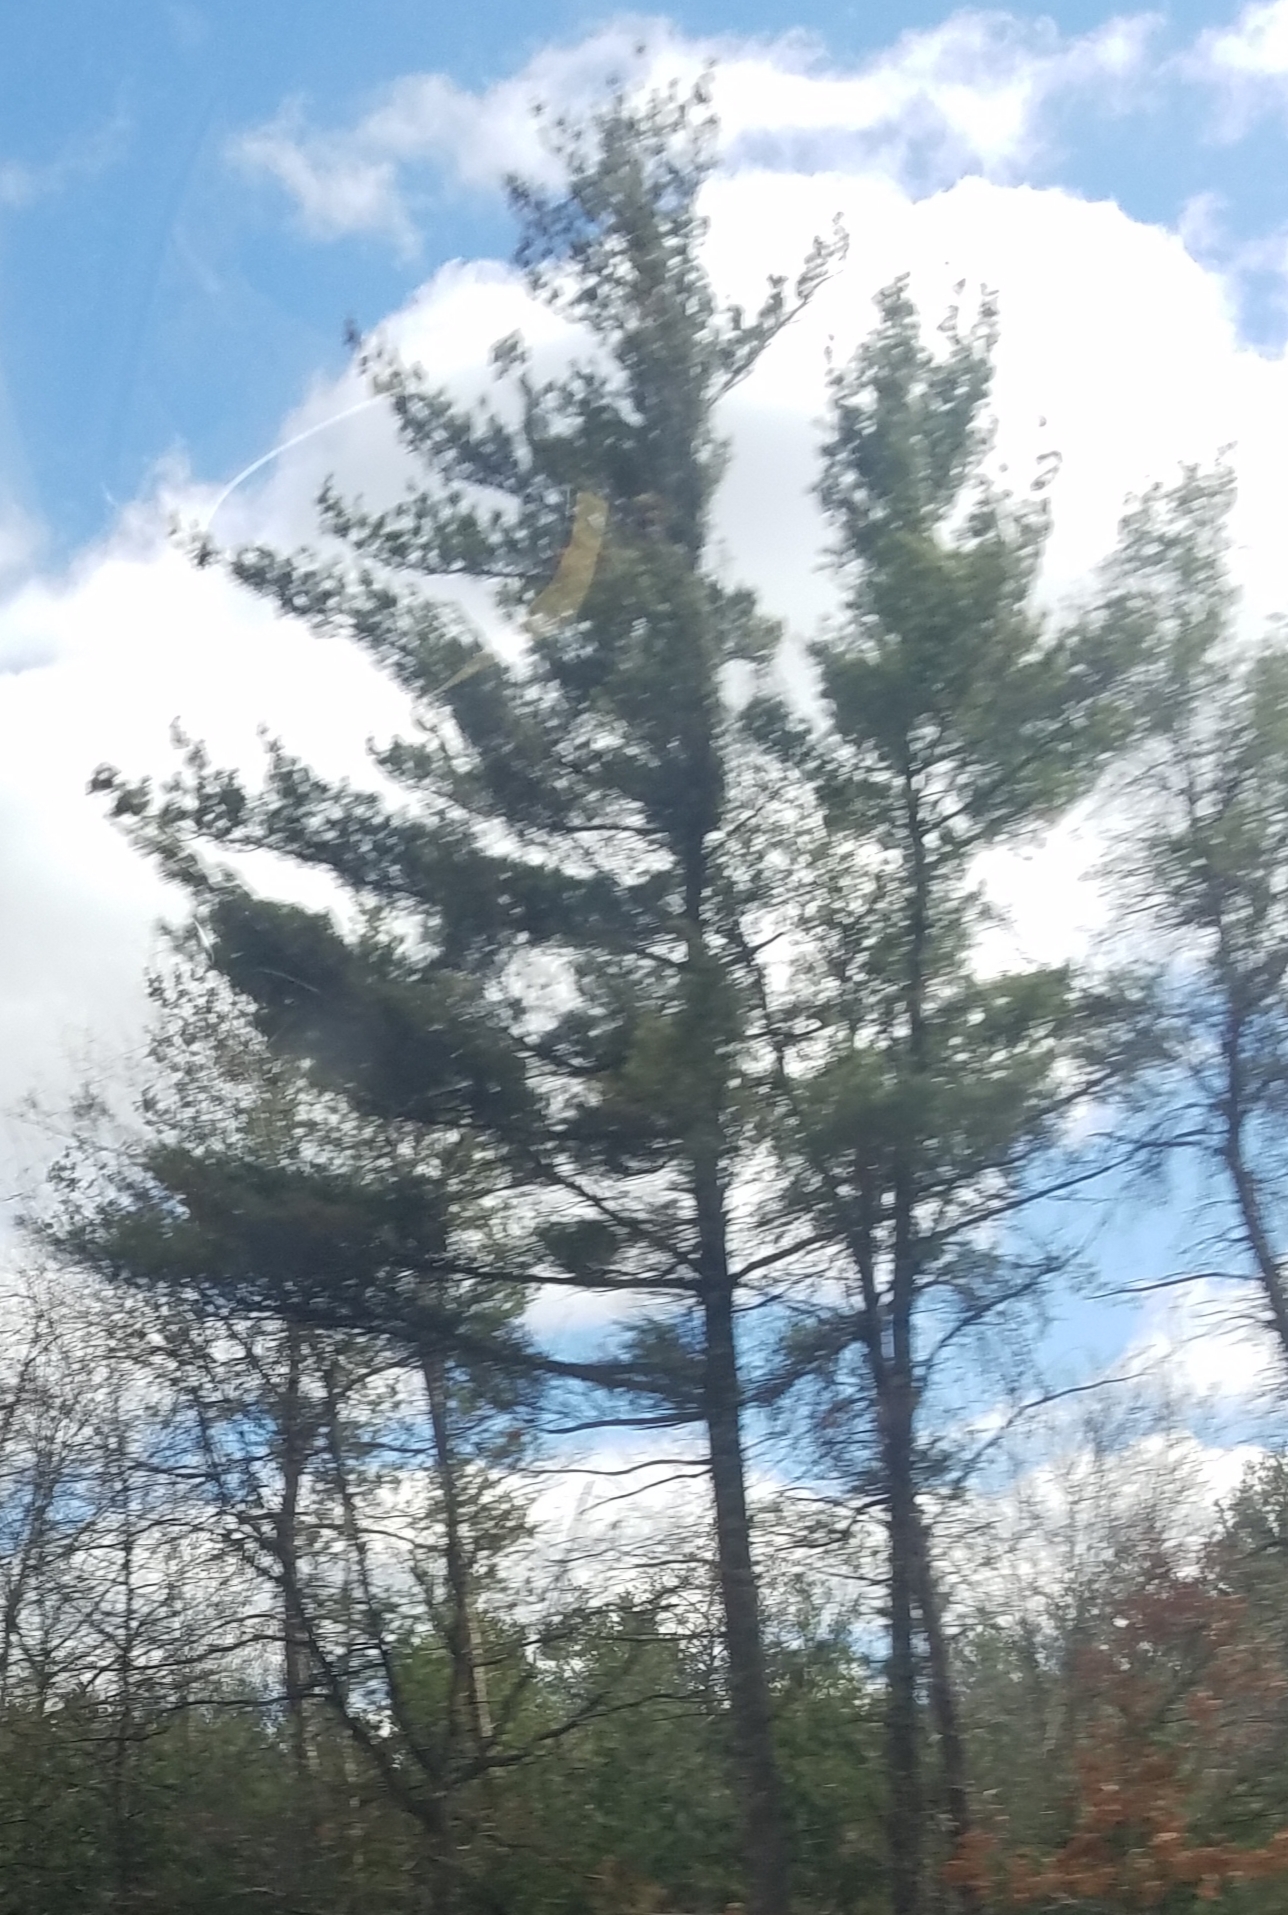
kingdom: Plantae
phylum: Tracheophyta
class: Pinopsida
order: Pinales
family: Pinaceae
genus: Pinus
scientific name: Pinus strobus
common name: Weymouth pine
